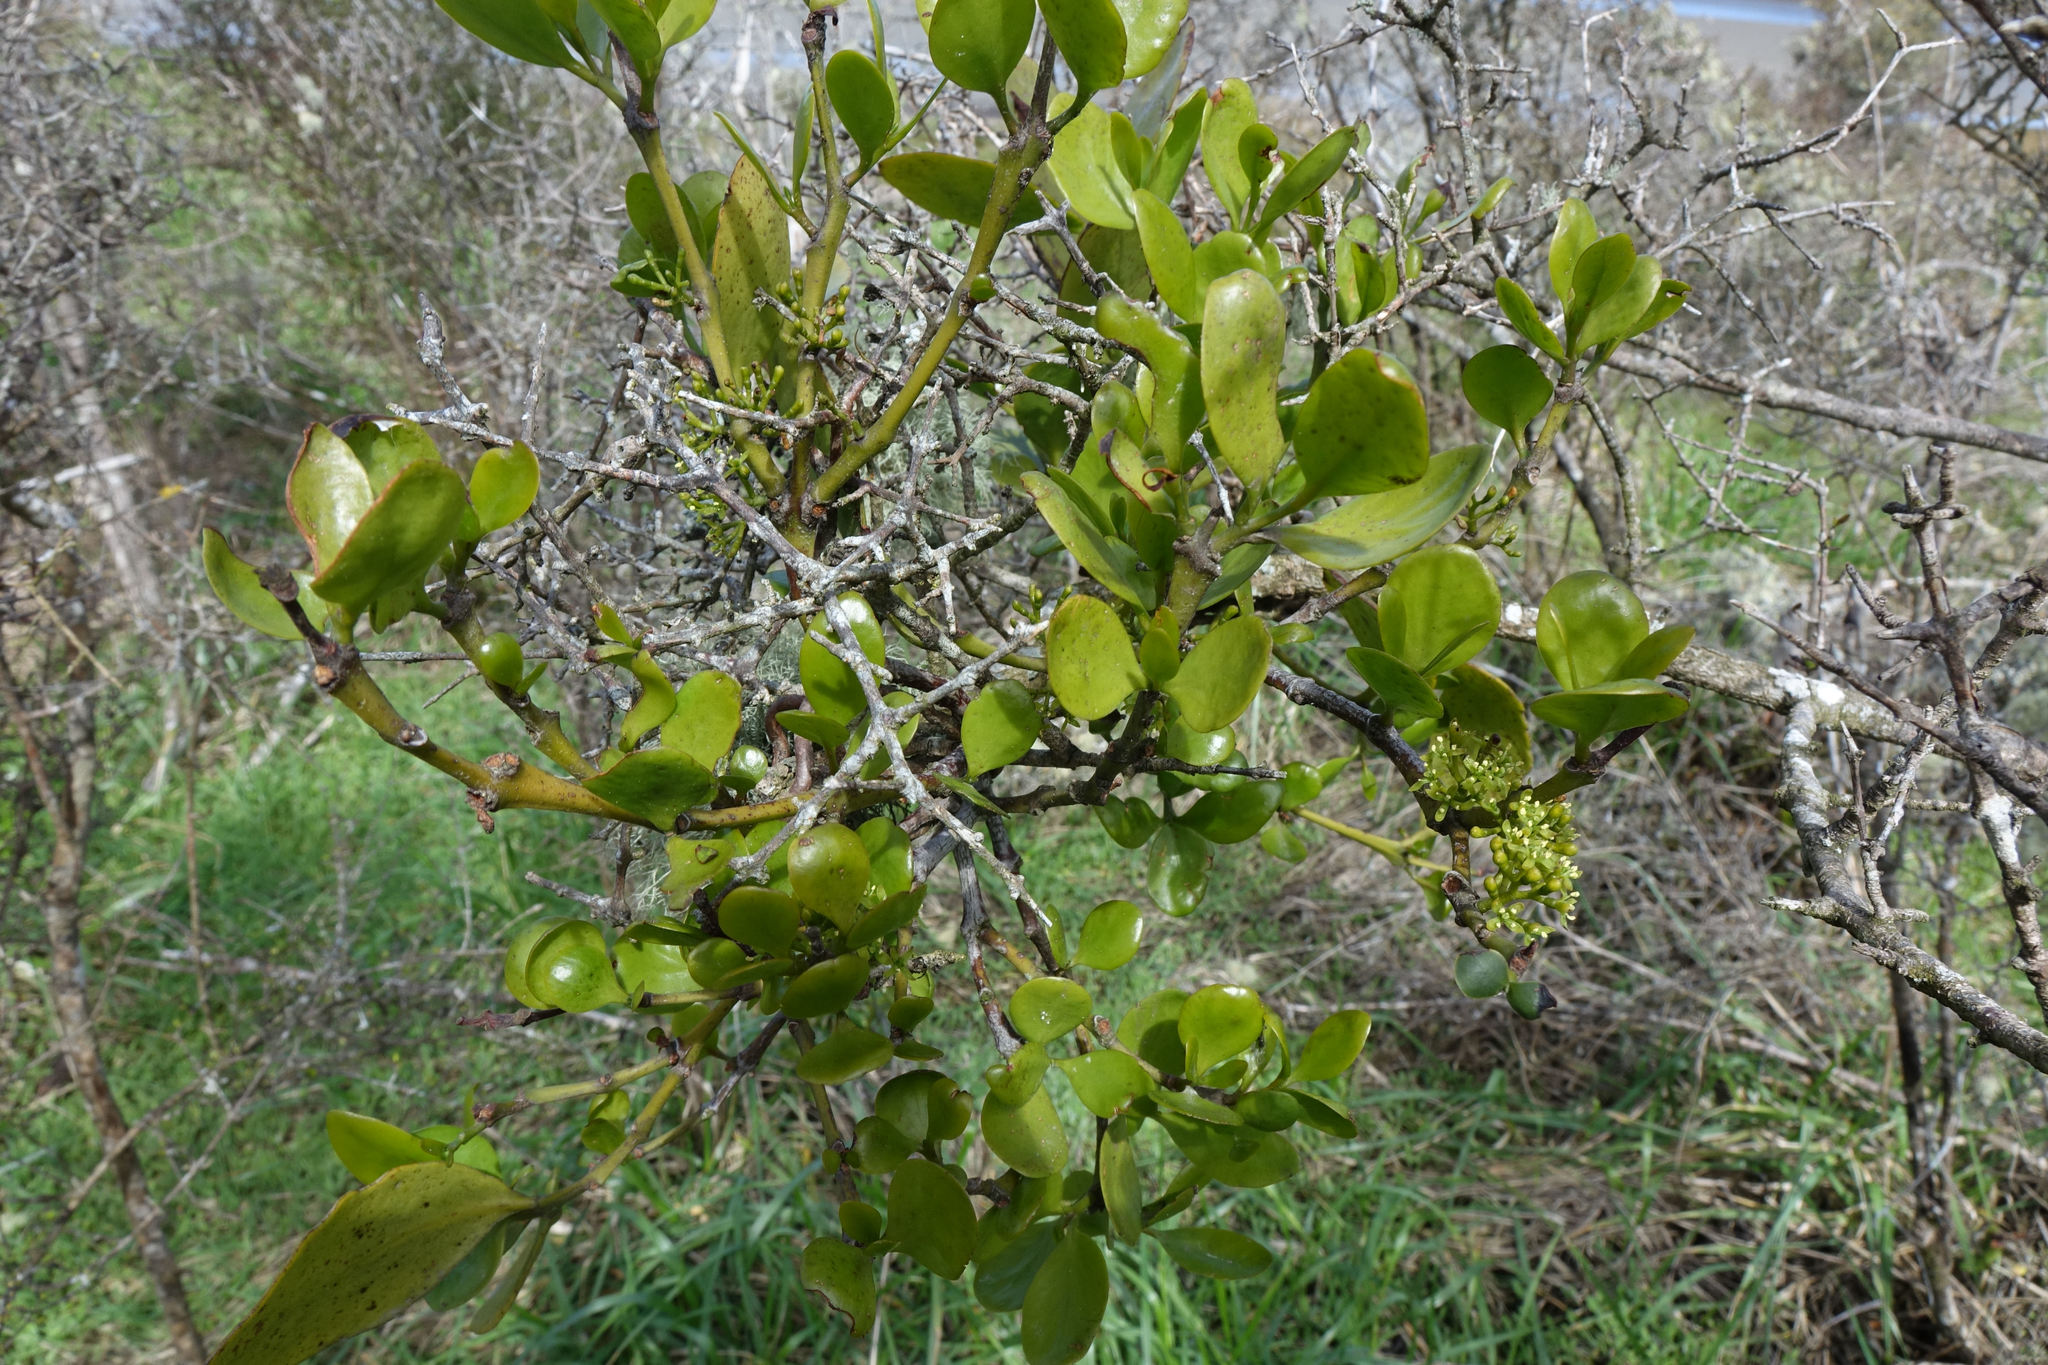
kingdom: Plantae
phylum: Tracheophyta
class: Magnoliopsida
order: Santalales
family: Loranthaceae
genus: Ileostylus
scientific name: Ileostylus micranthus
